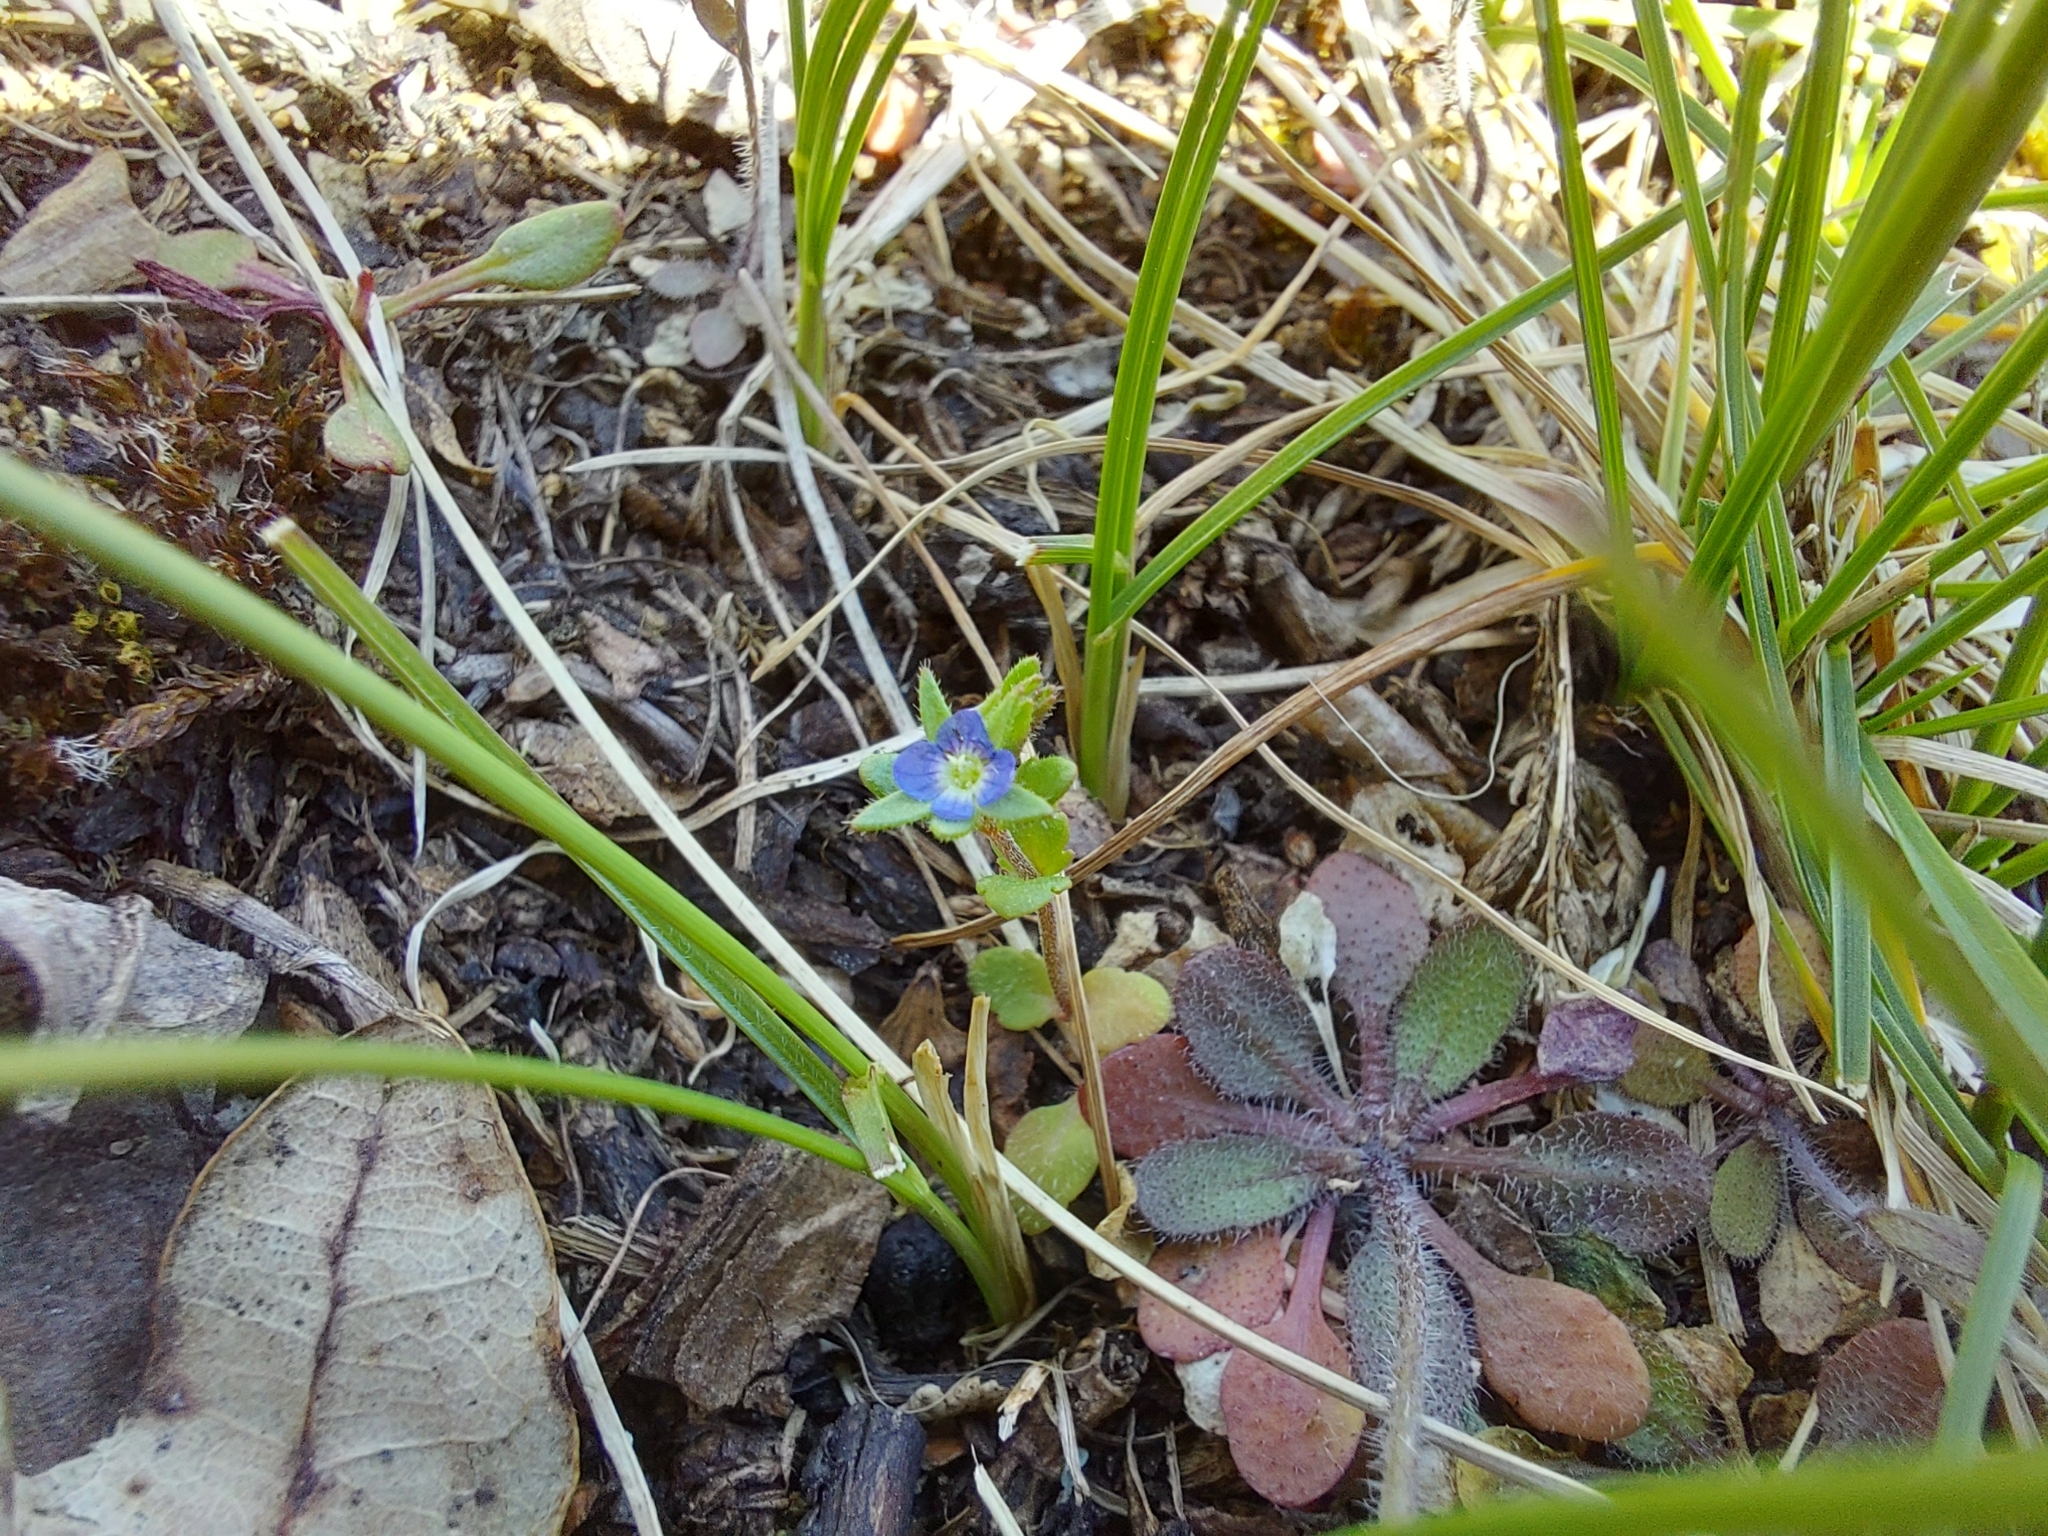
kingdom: Plantae
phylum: Tracheophyta
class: Magnoliopsida
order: Lamiales
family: Plantaginaceae
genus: Veronica
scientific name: Veronica arvensis
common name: Corn speedwell
